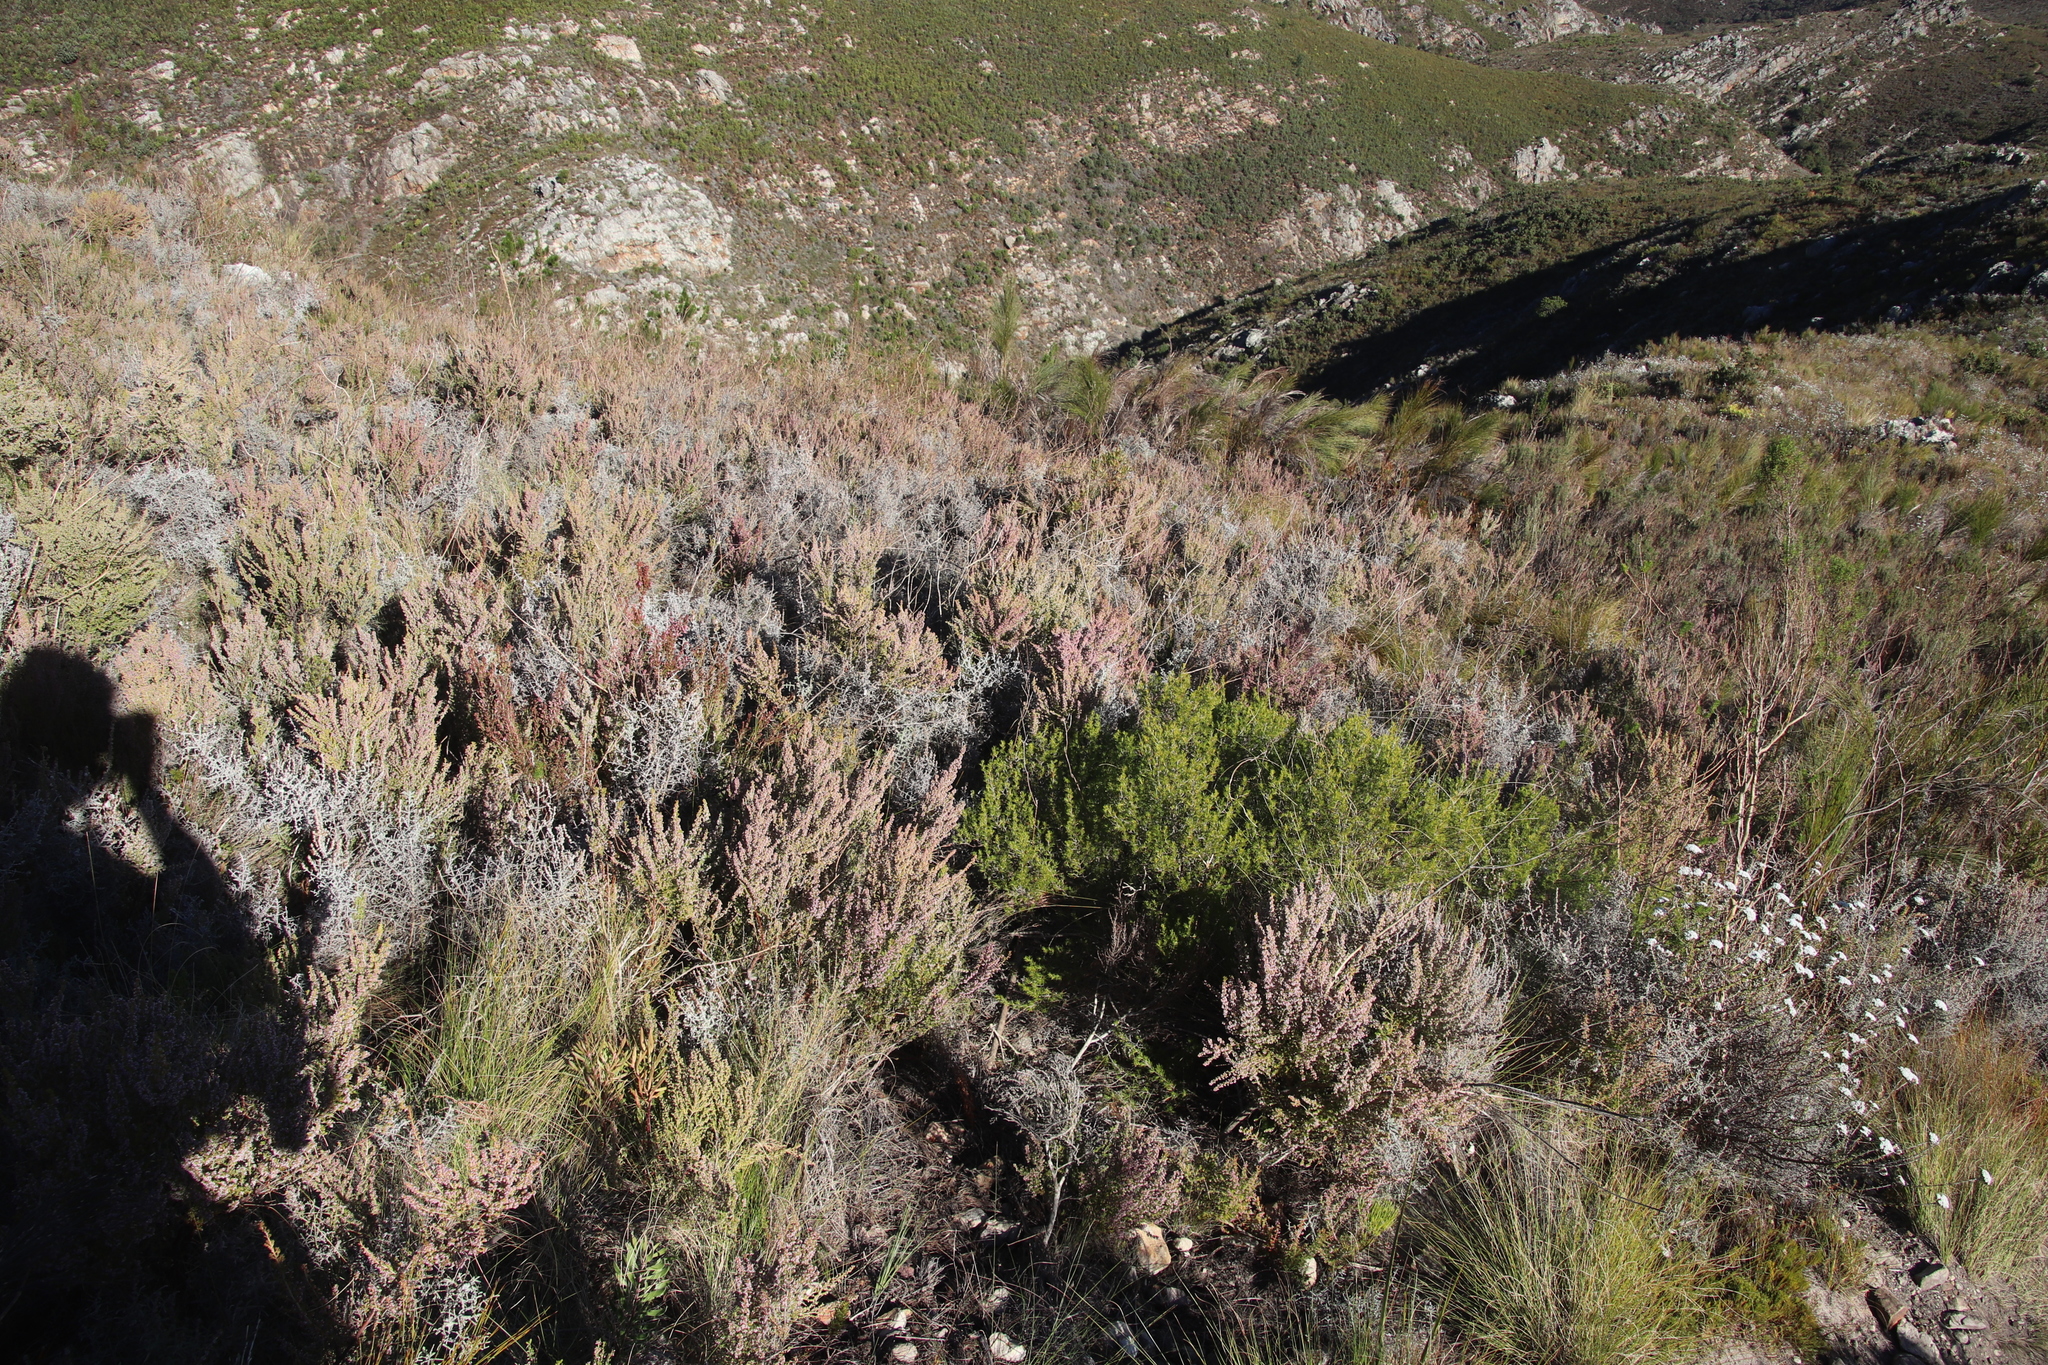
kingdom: Plantae
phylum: Tracheophyta
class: Magnoliopsida
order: Ericales
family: Ericaceae
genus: Erica
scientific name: Erica hispidula
